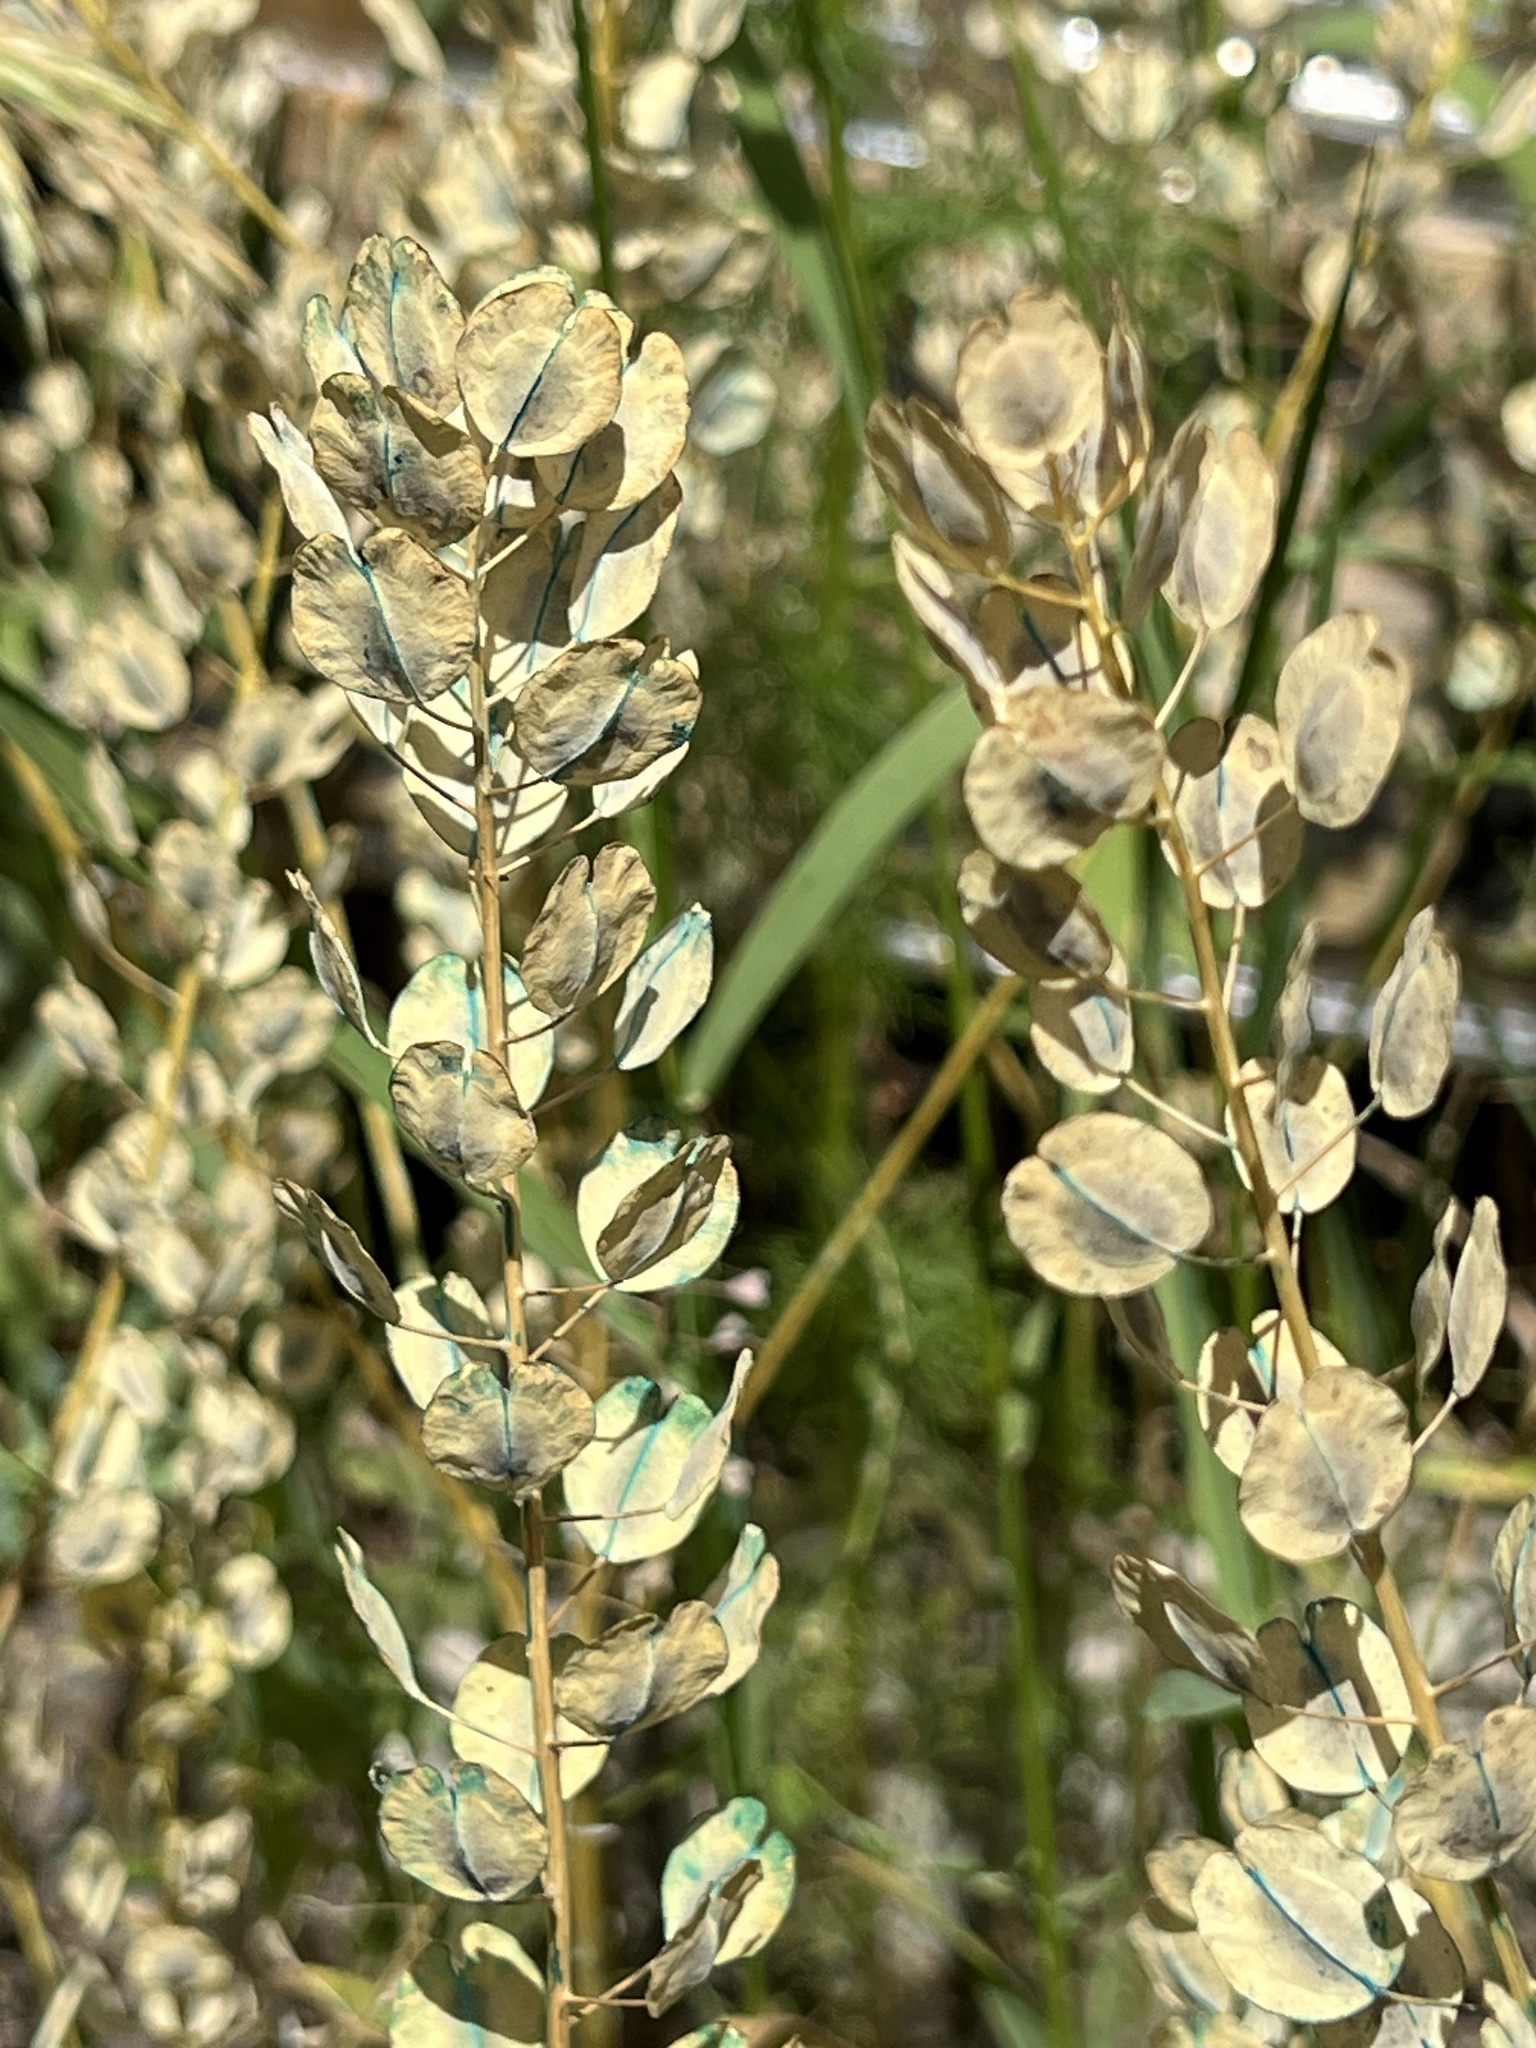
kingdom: Plantae
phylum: Tracheophyta
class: Magnoliopsida
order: Brassicales
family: Brassicaceae
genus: Thlaspi
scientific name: Thlaspi arvense
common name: Field pennycress
